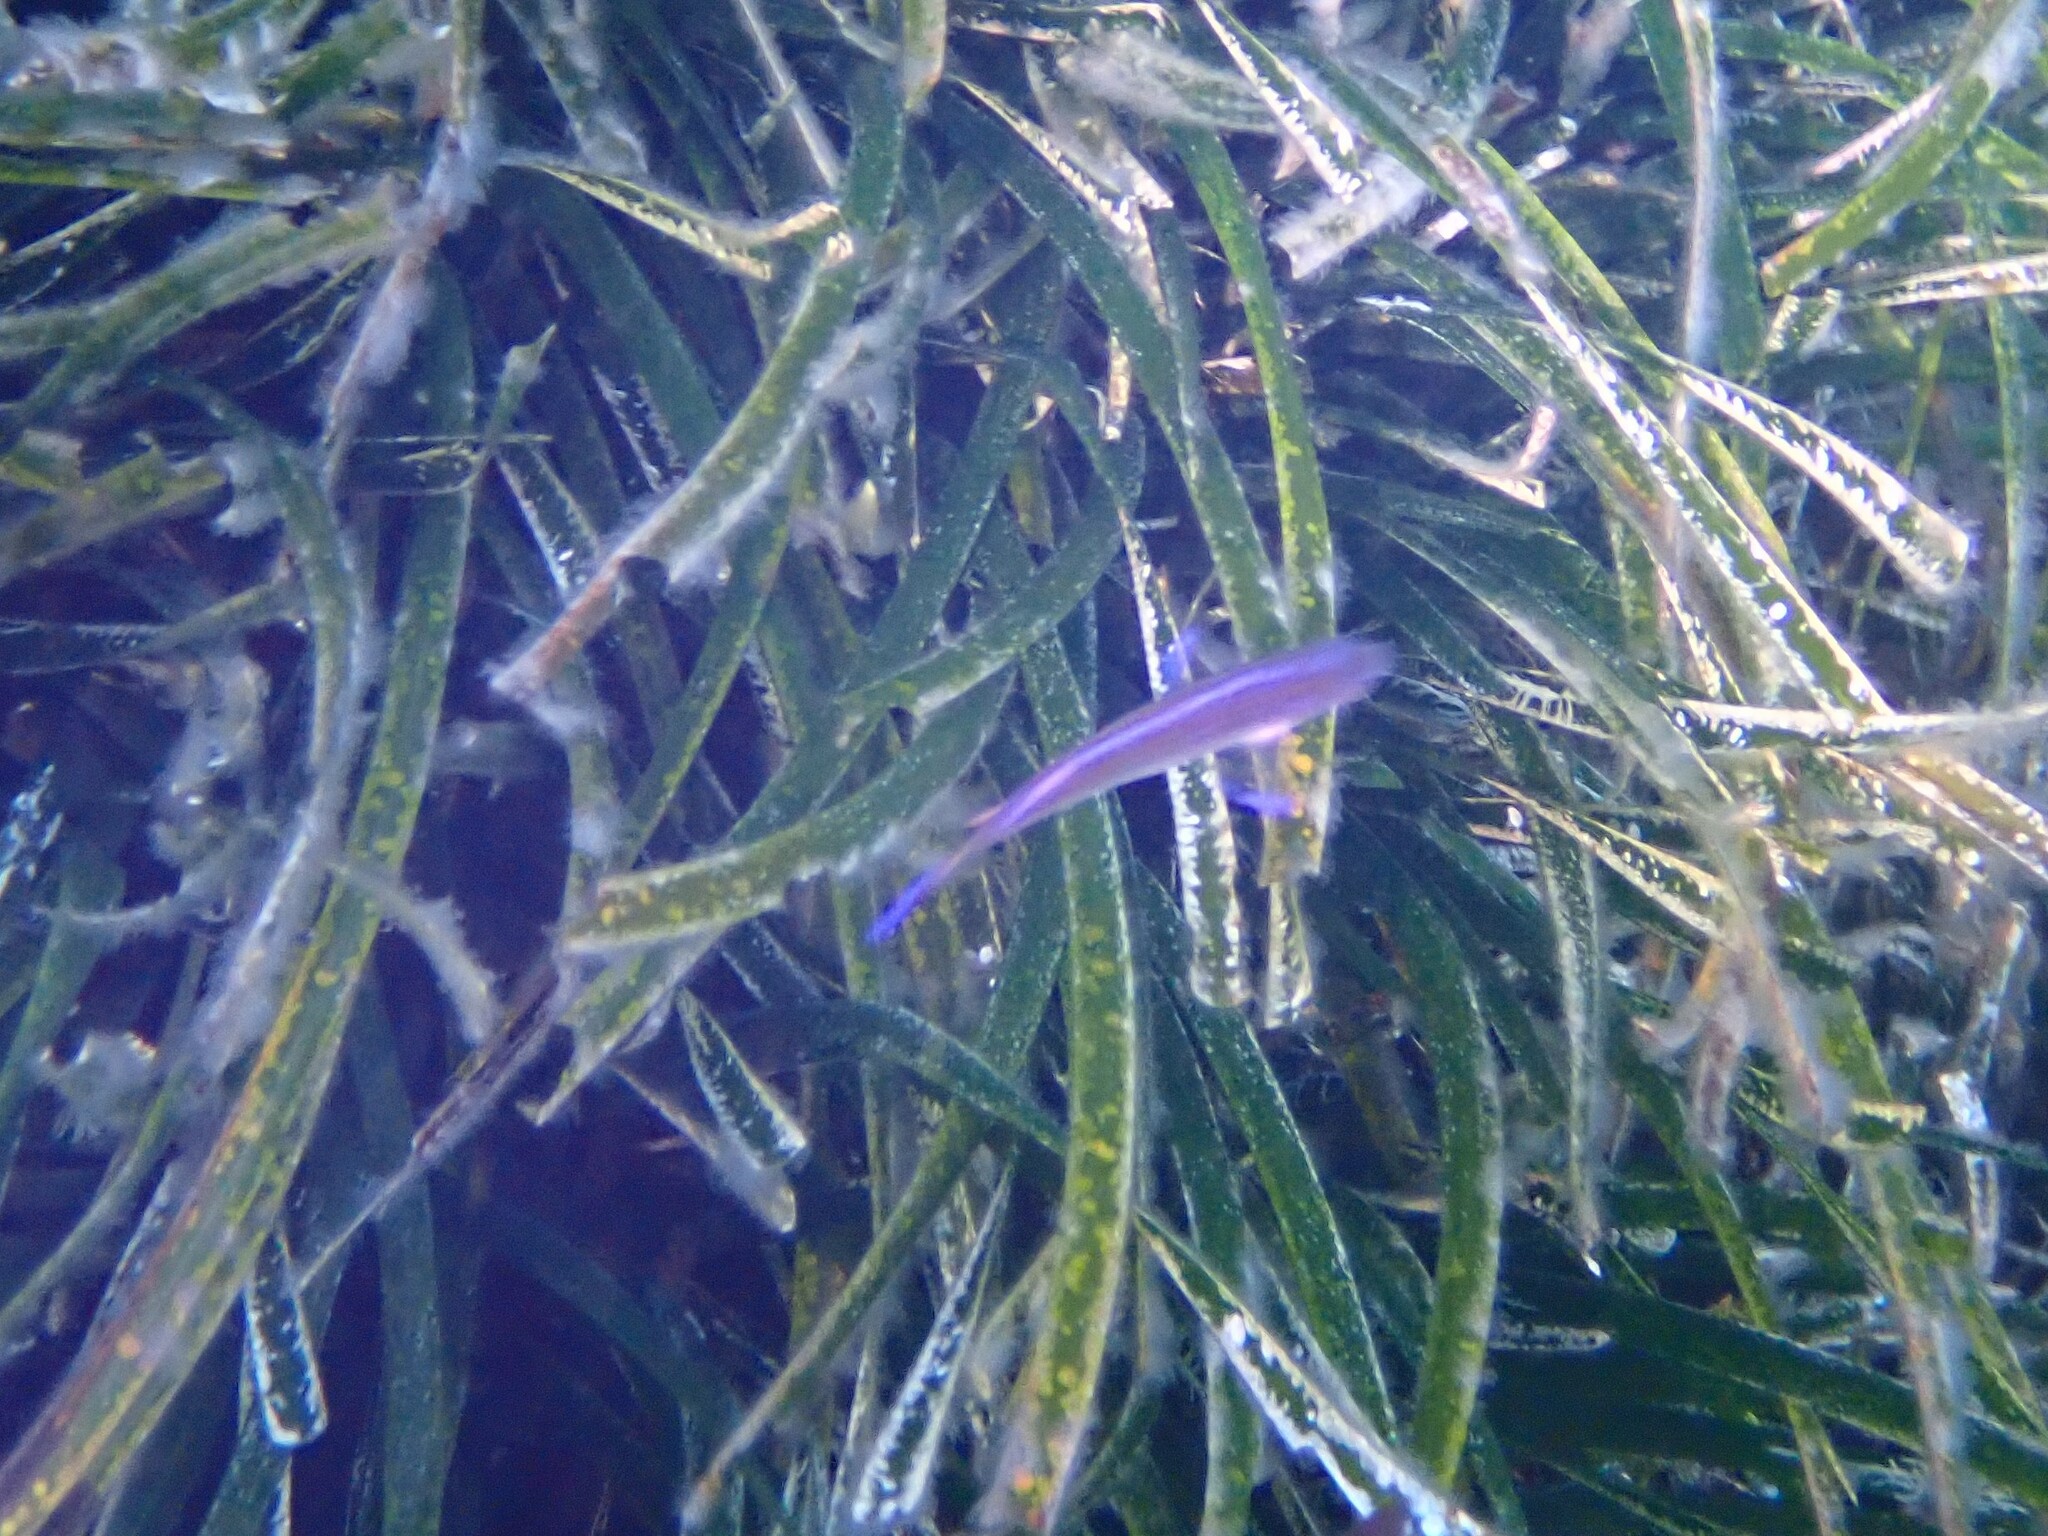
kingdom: Animalia
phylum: Chordata
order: Perciformes
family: Labridae
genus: Centrolabrus
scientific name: Centrolabrus melanocercus
